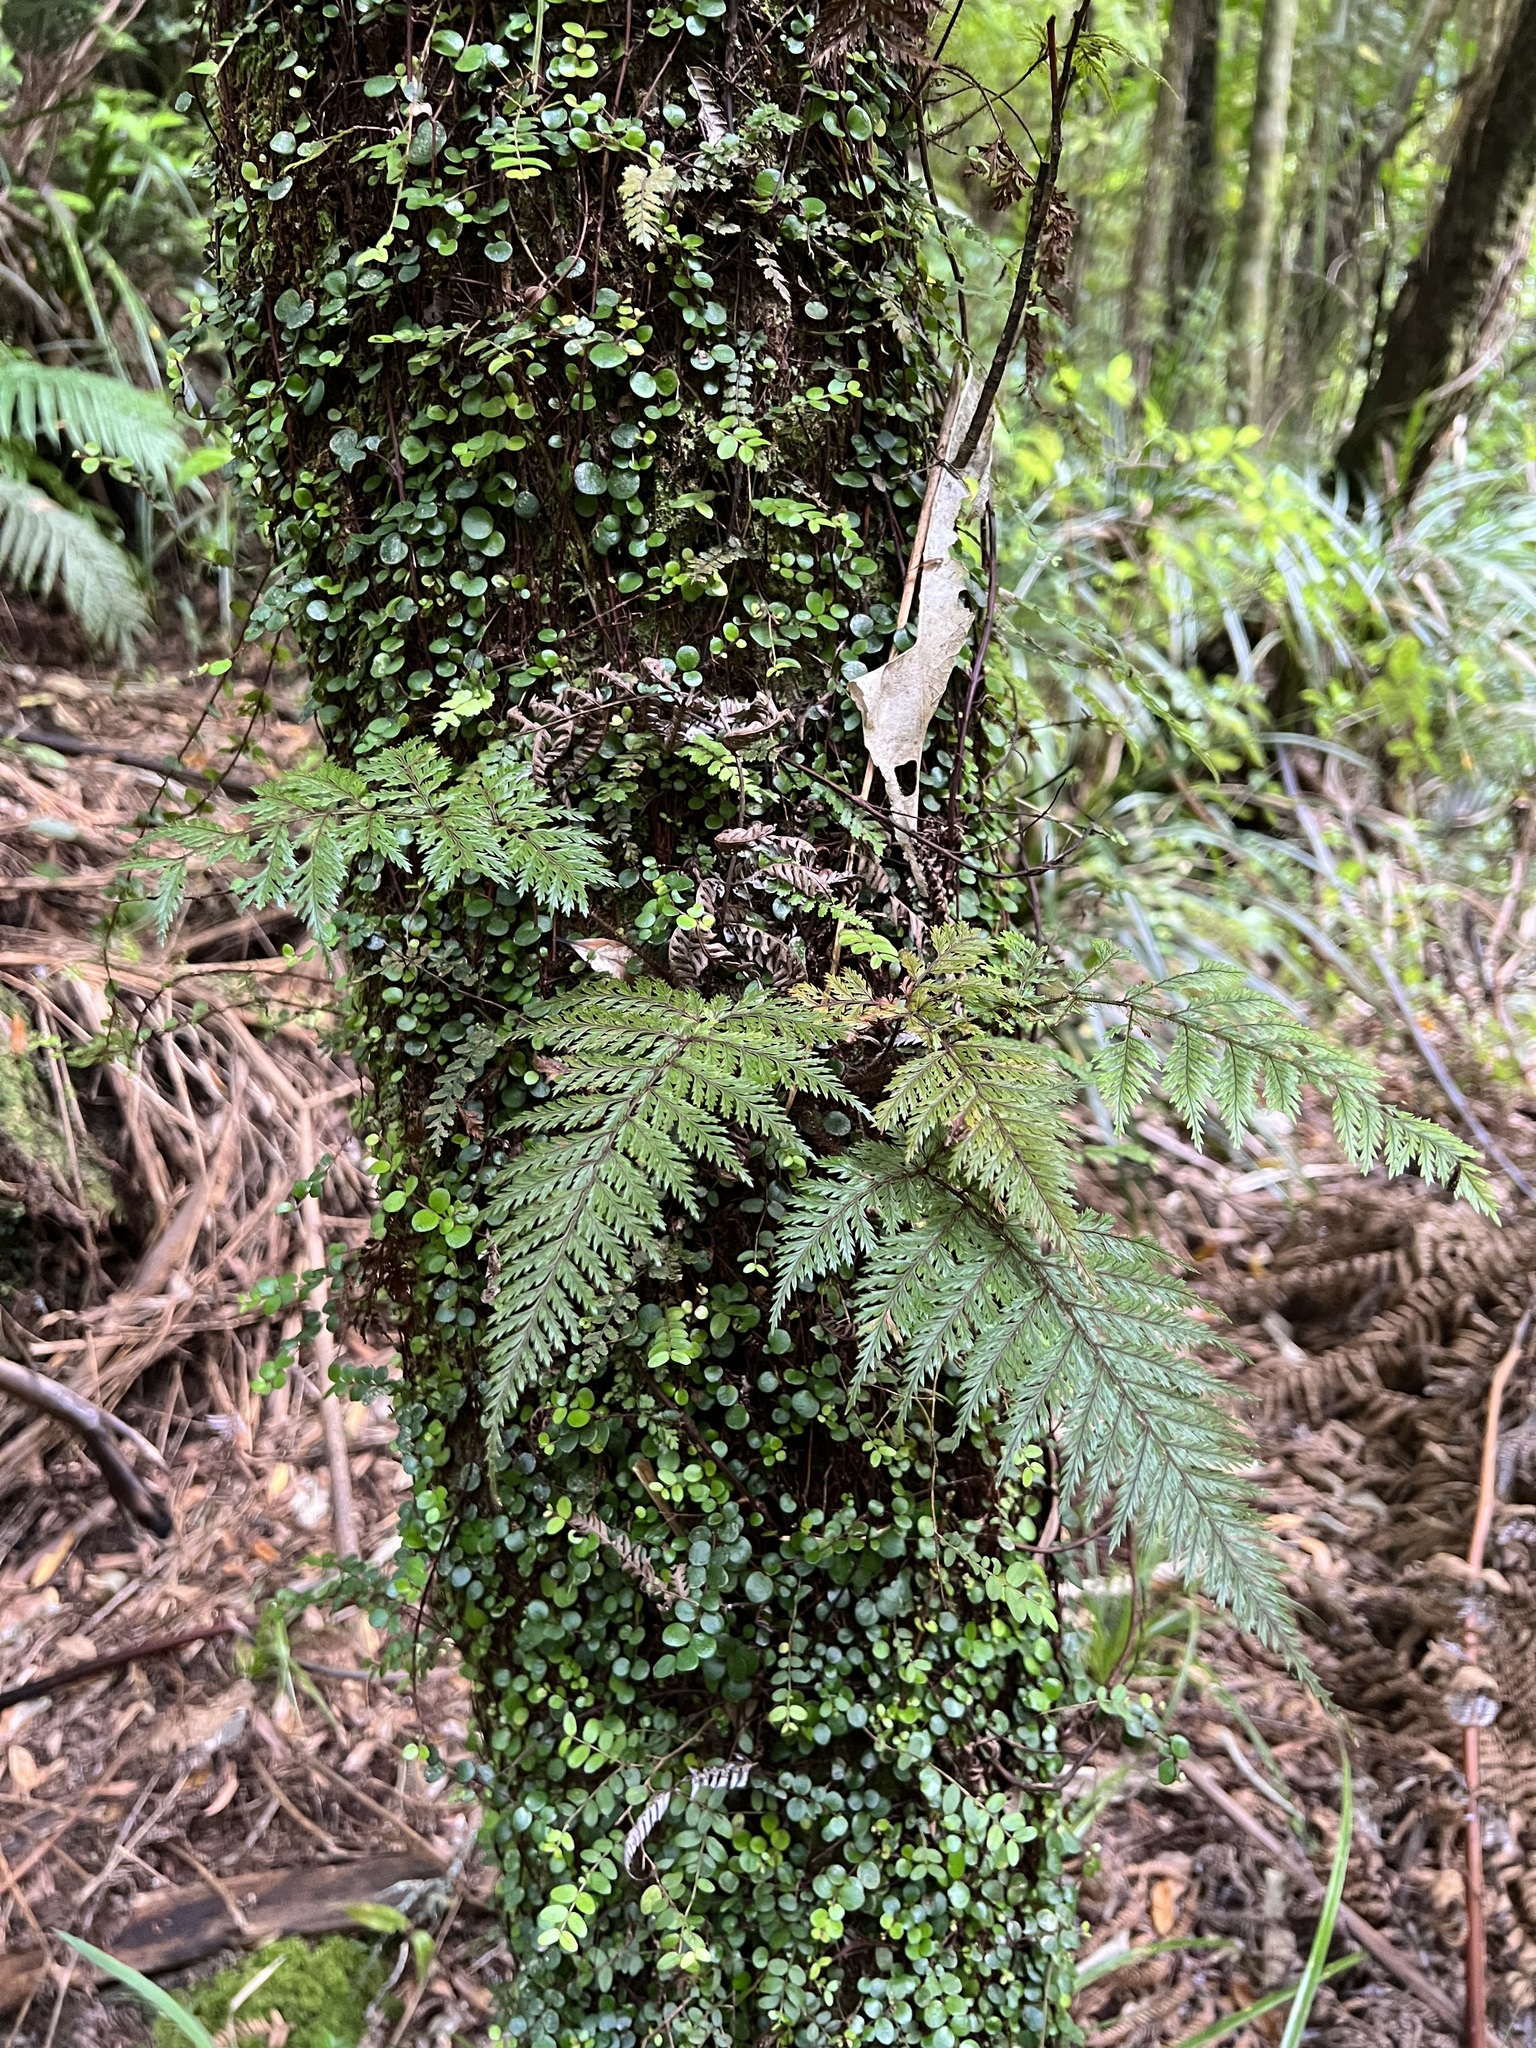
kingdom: Plantae
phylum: Tracheophyta
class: Polypodiopsida
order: Polypodiales
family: Dryopteridaceae
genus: Lastreopsis
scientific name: Lastreopsis hispida
